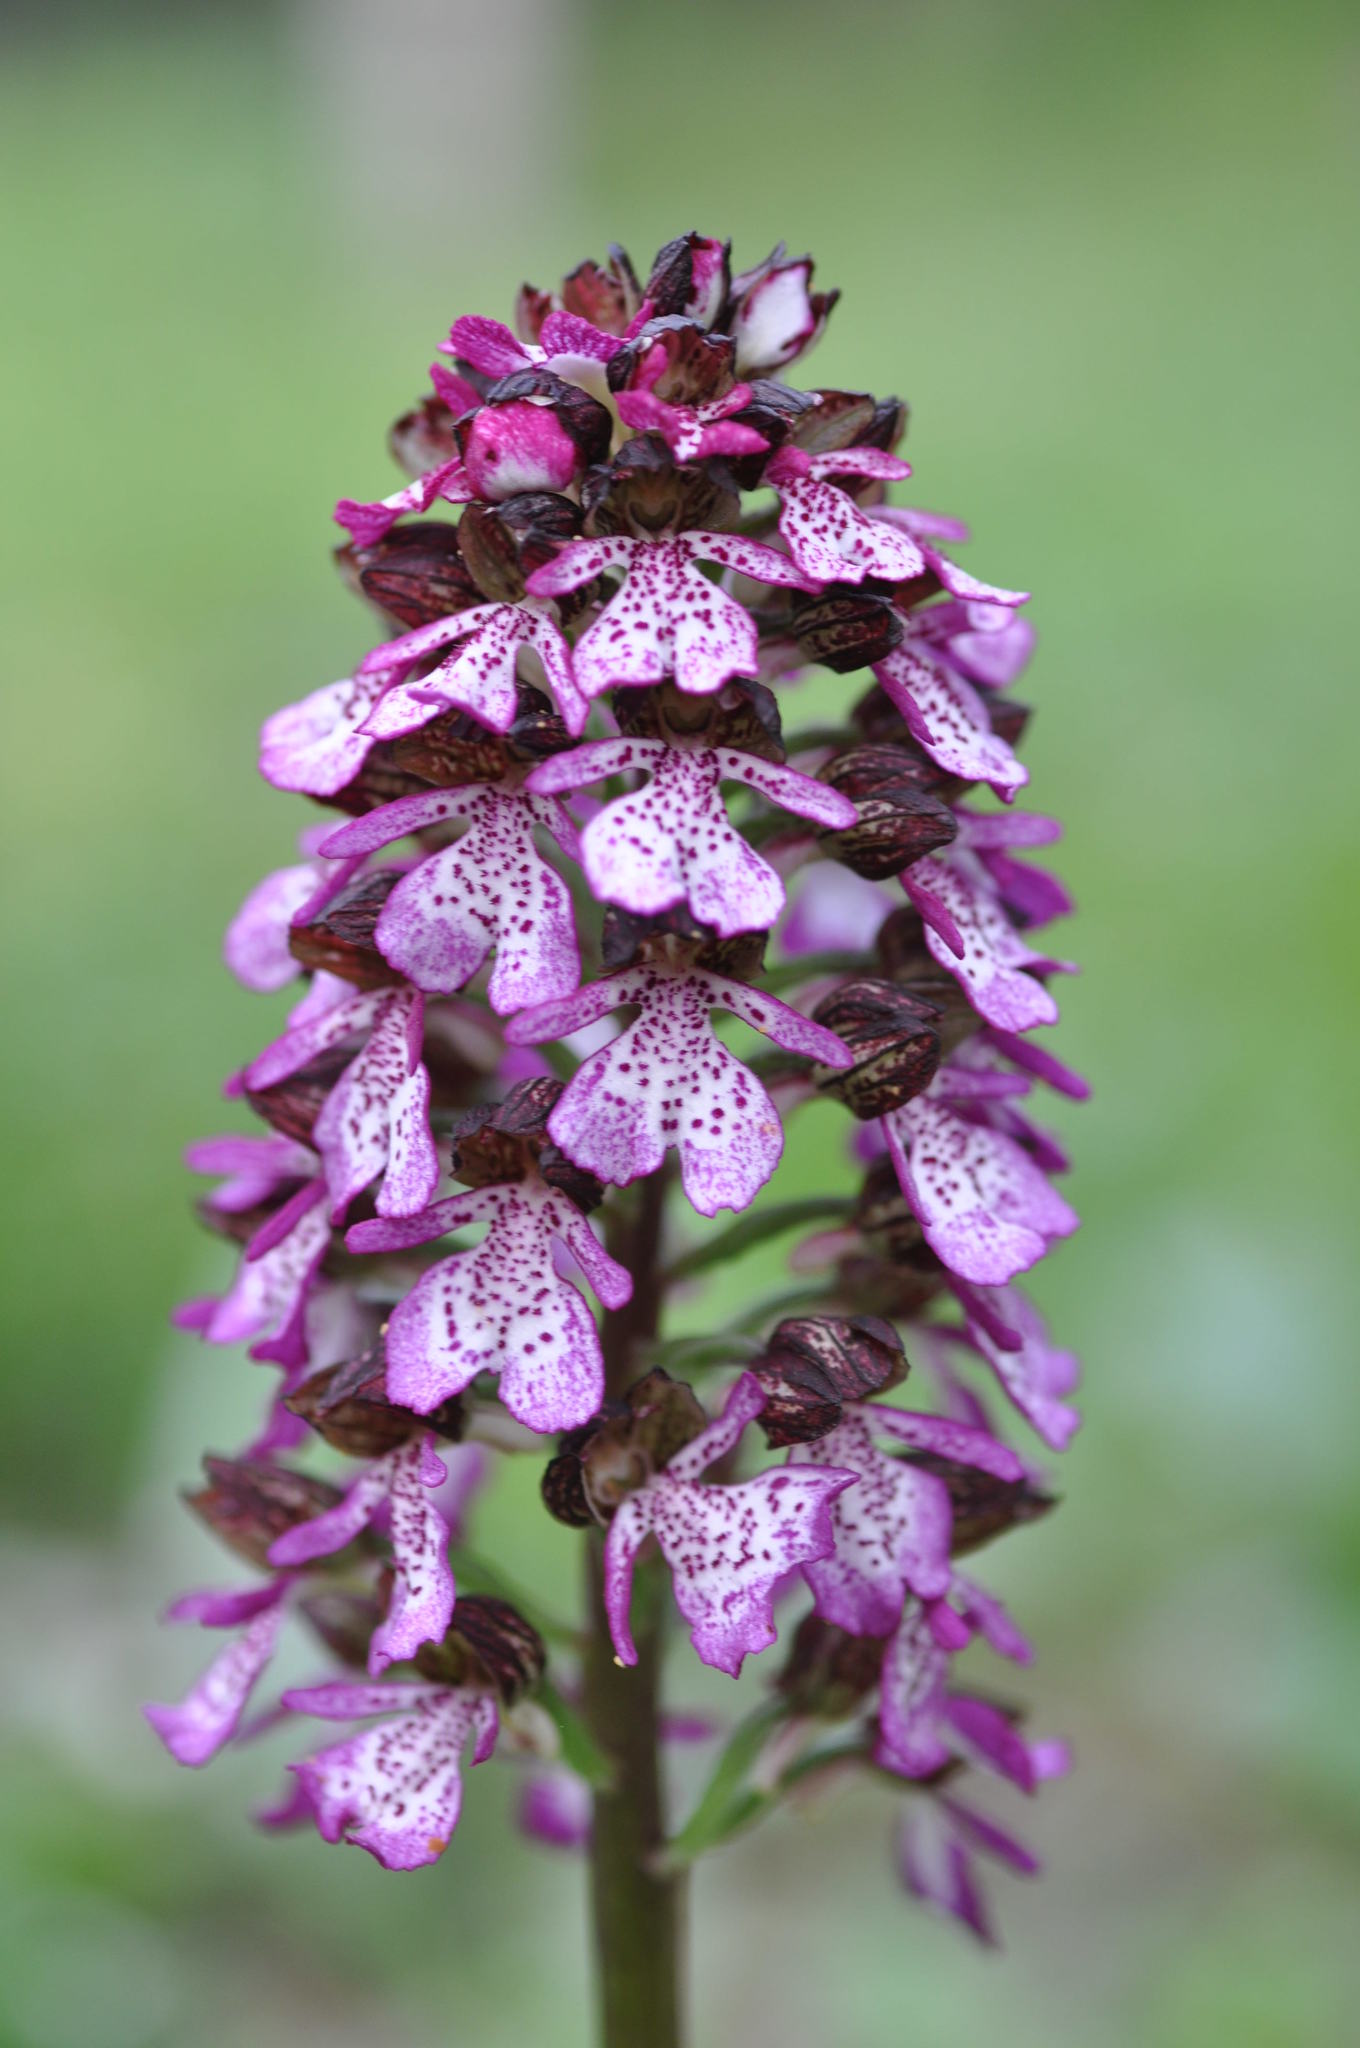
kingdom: Plantae
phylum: Tracheophyta
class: Liliopsida
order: Asparagales
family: Orchidaceae
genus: Orchis
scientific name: Orchis purpurea
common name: Lady orchid
